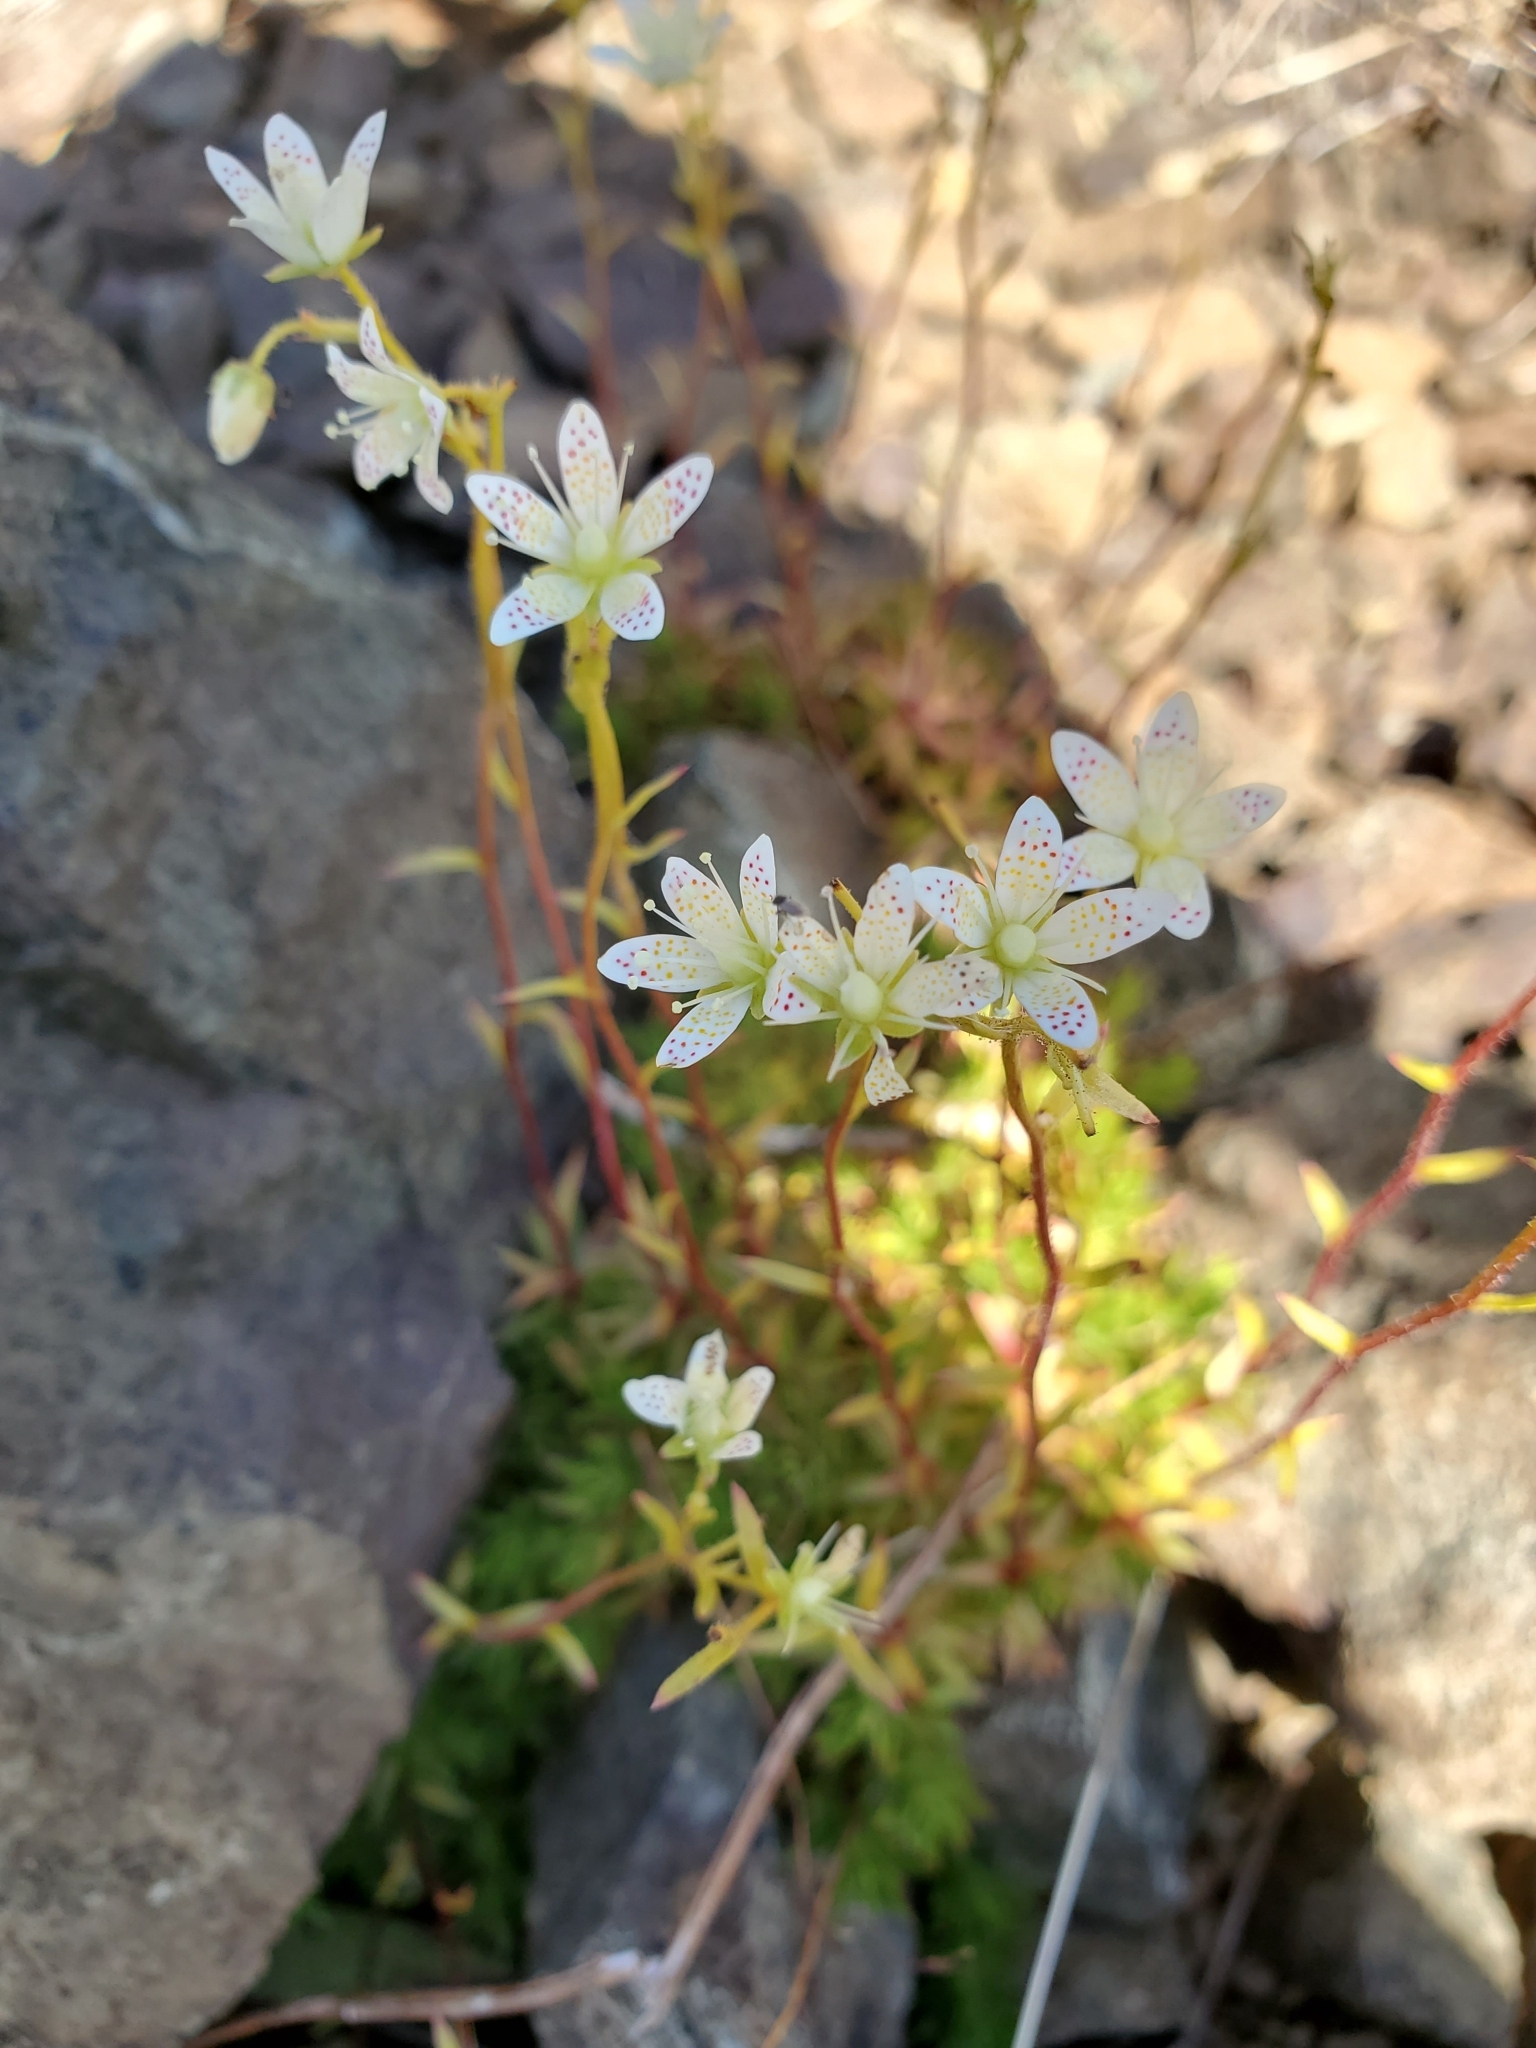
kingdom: Plantae
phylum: Tracheophyta
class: Magnoliopsida
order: Saxifragales
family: Saxifragaceae
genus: Saxifraga
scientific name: Saxifraga bronchialis
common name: Matted saxifrage
